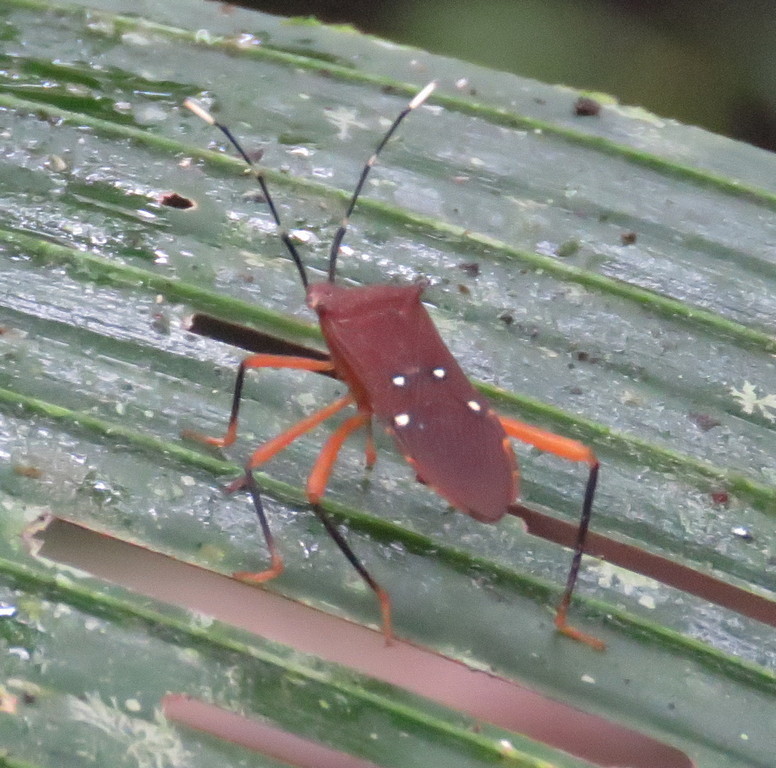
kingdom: Animalia
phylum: Arthropoda
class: Insecta
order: Hemiptera
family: Coreidae
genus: Leptoscelis
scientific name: Leptoscelis quadrisignatus
